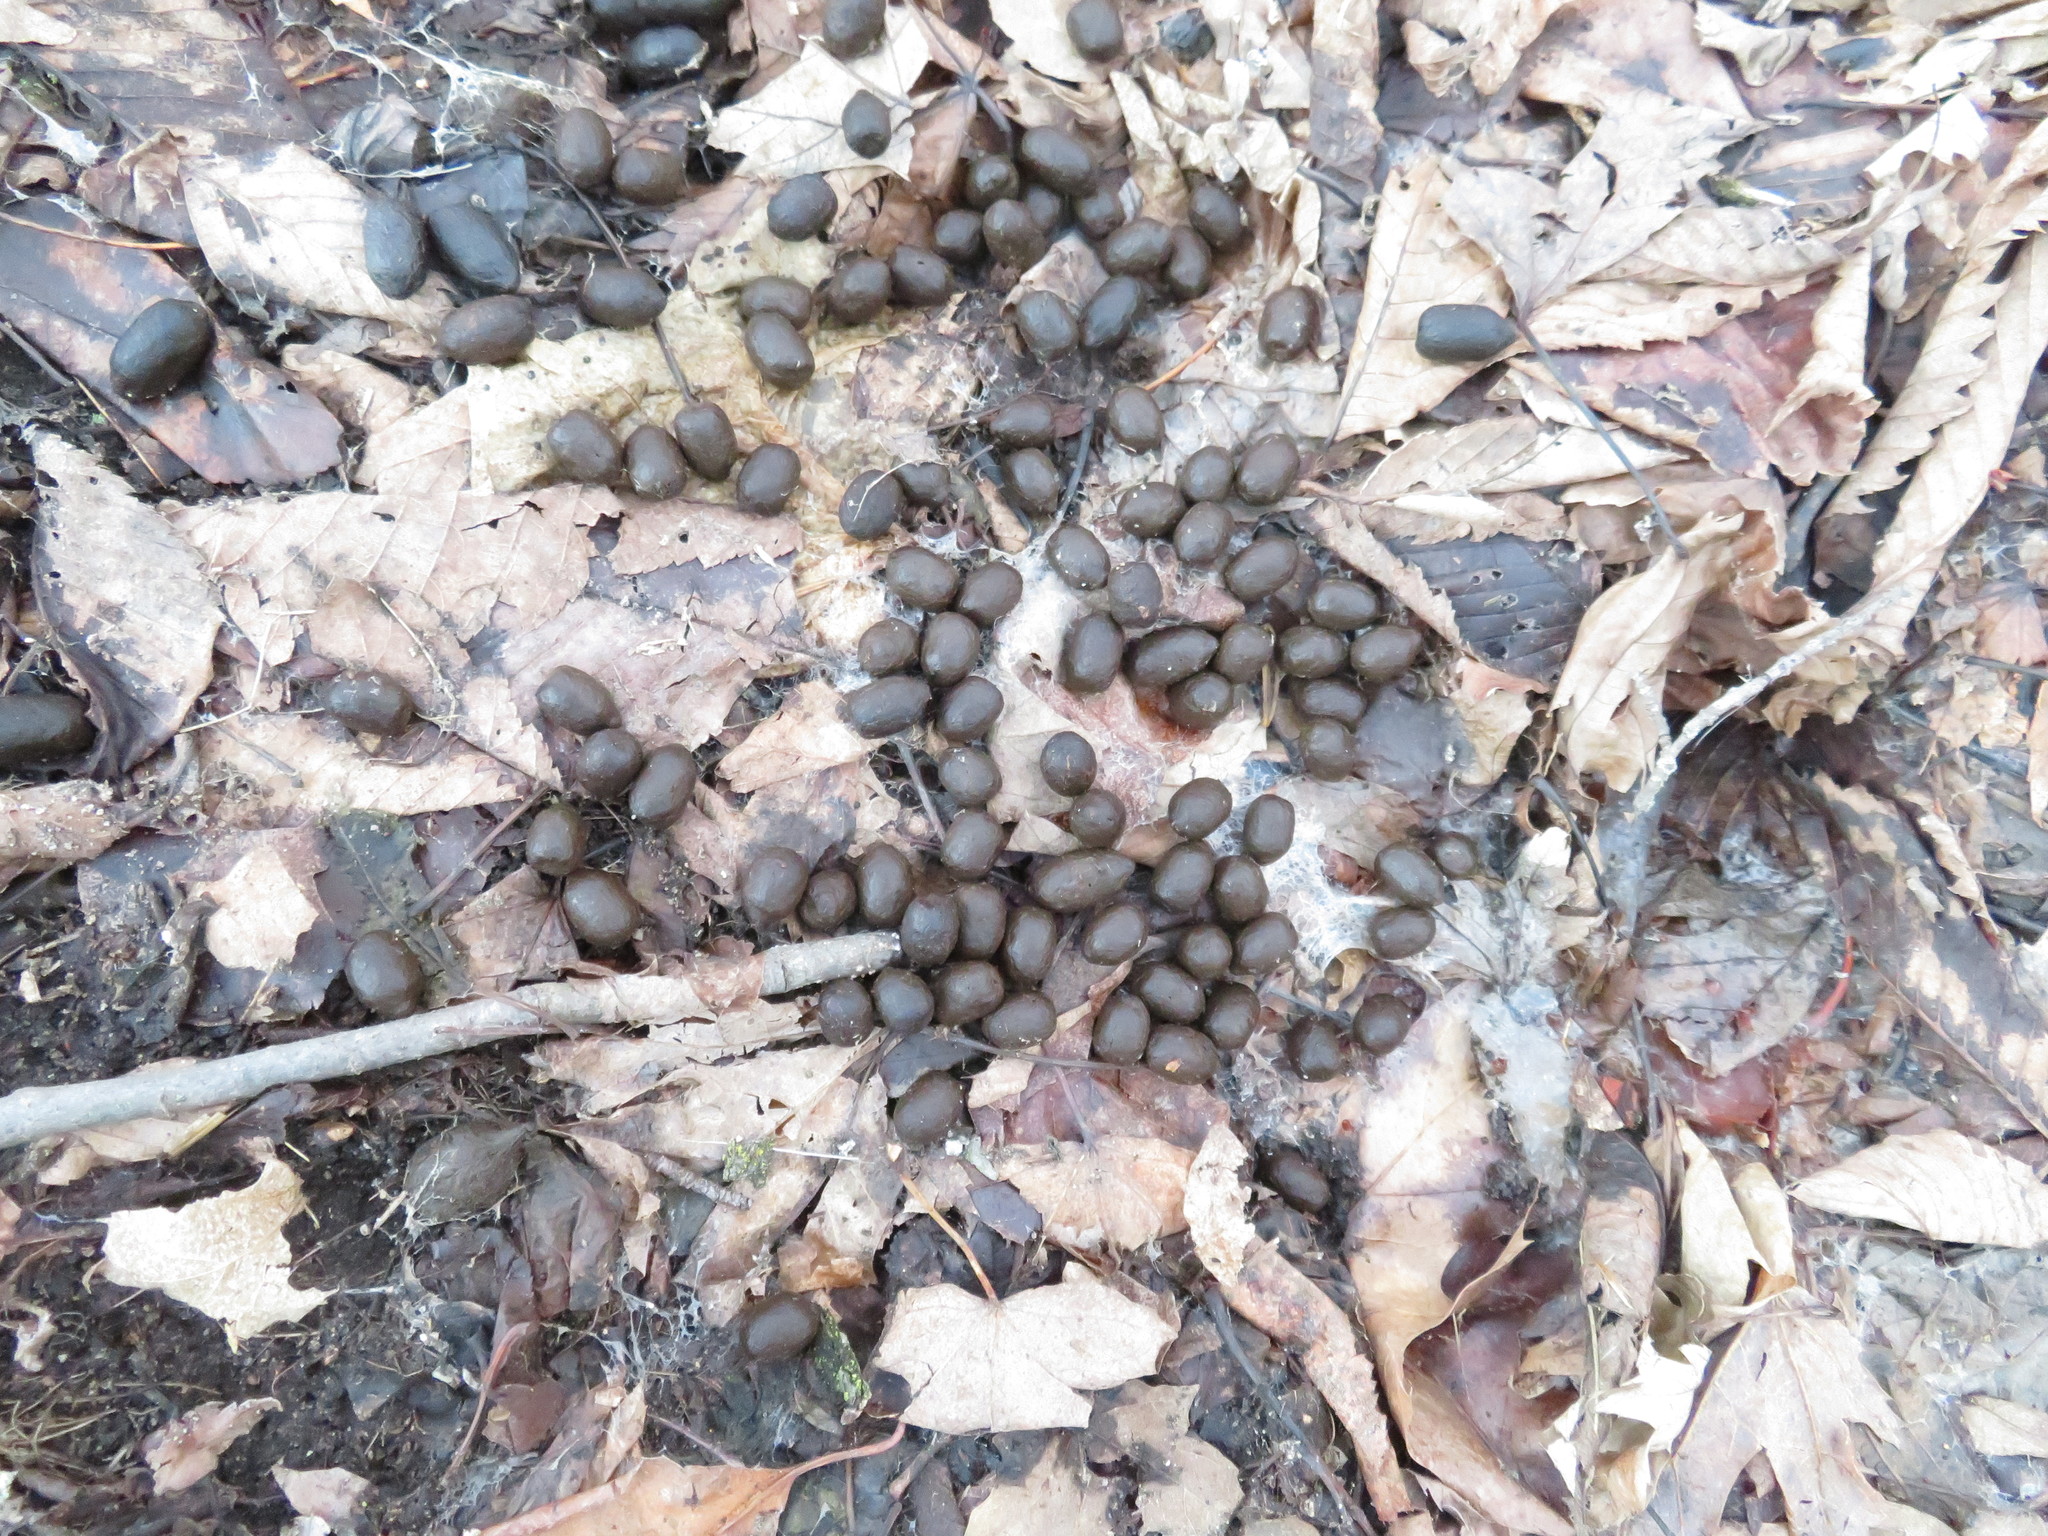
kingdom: Animalia
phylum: Chordata
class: Mammalia
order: Artiodactyla
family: Cervidae
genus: Odocoileus
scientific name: Odocoileus virginianus
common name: White-tailed deer
